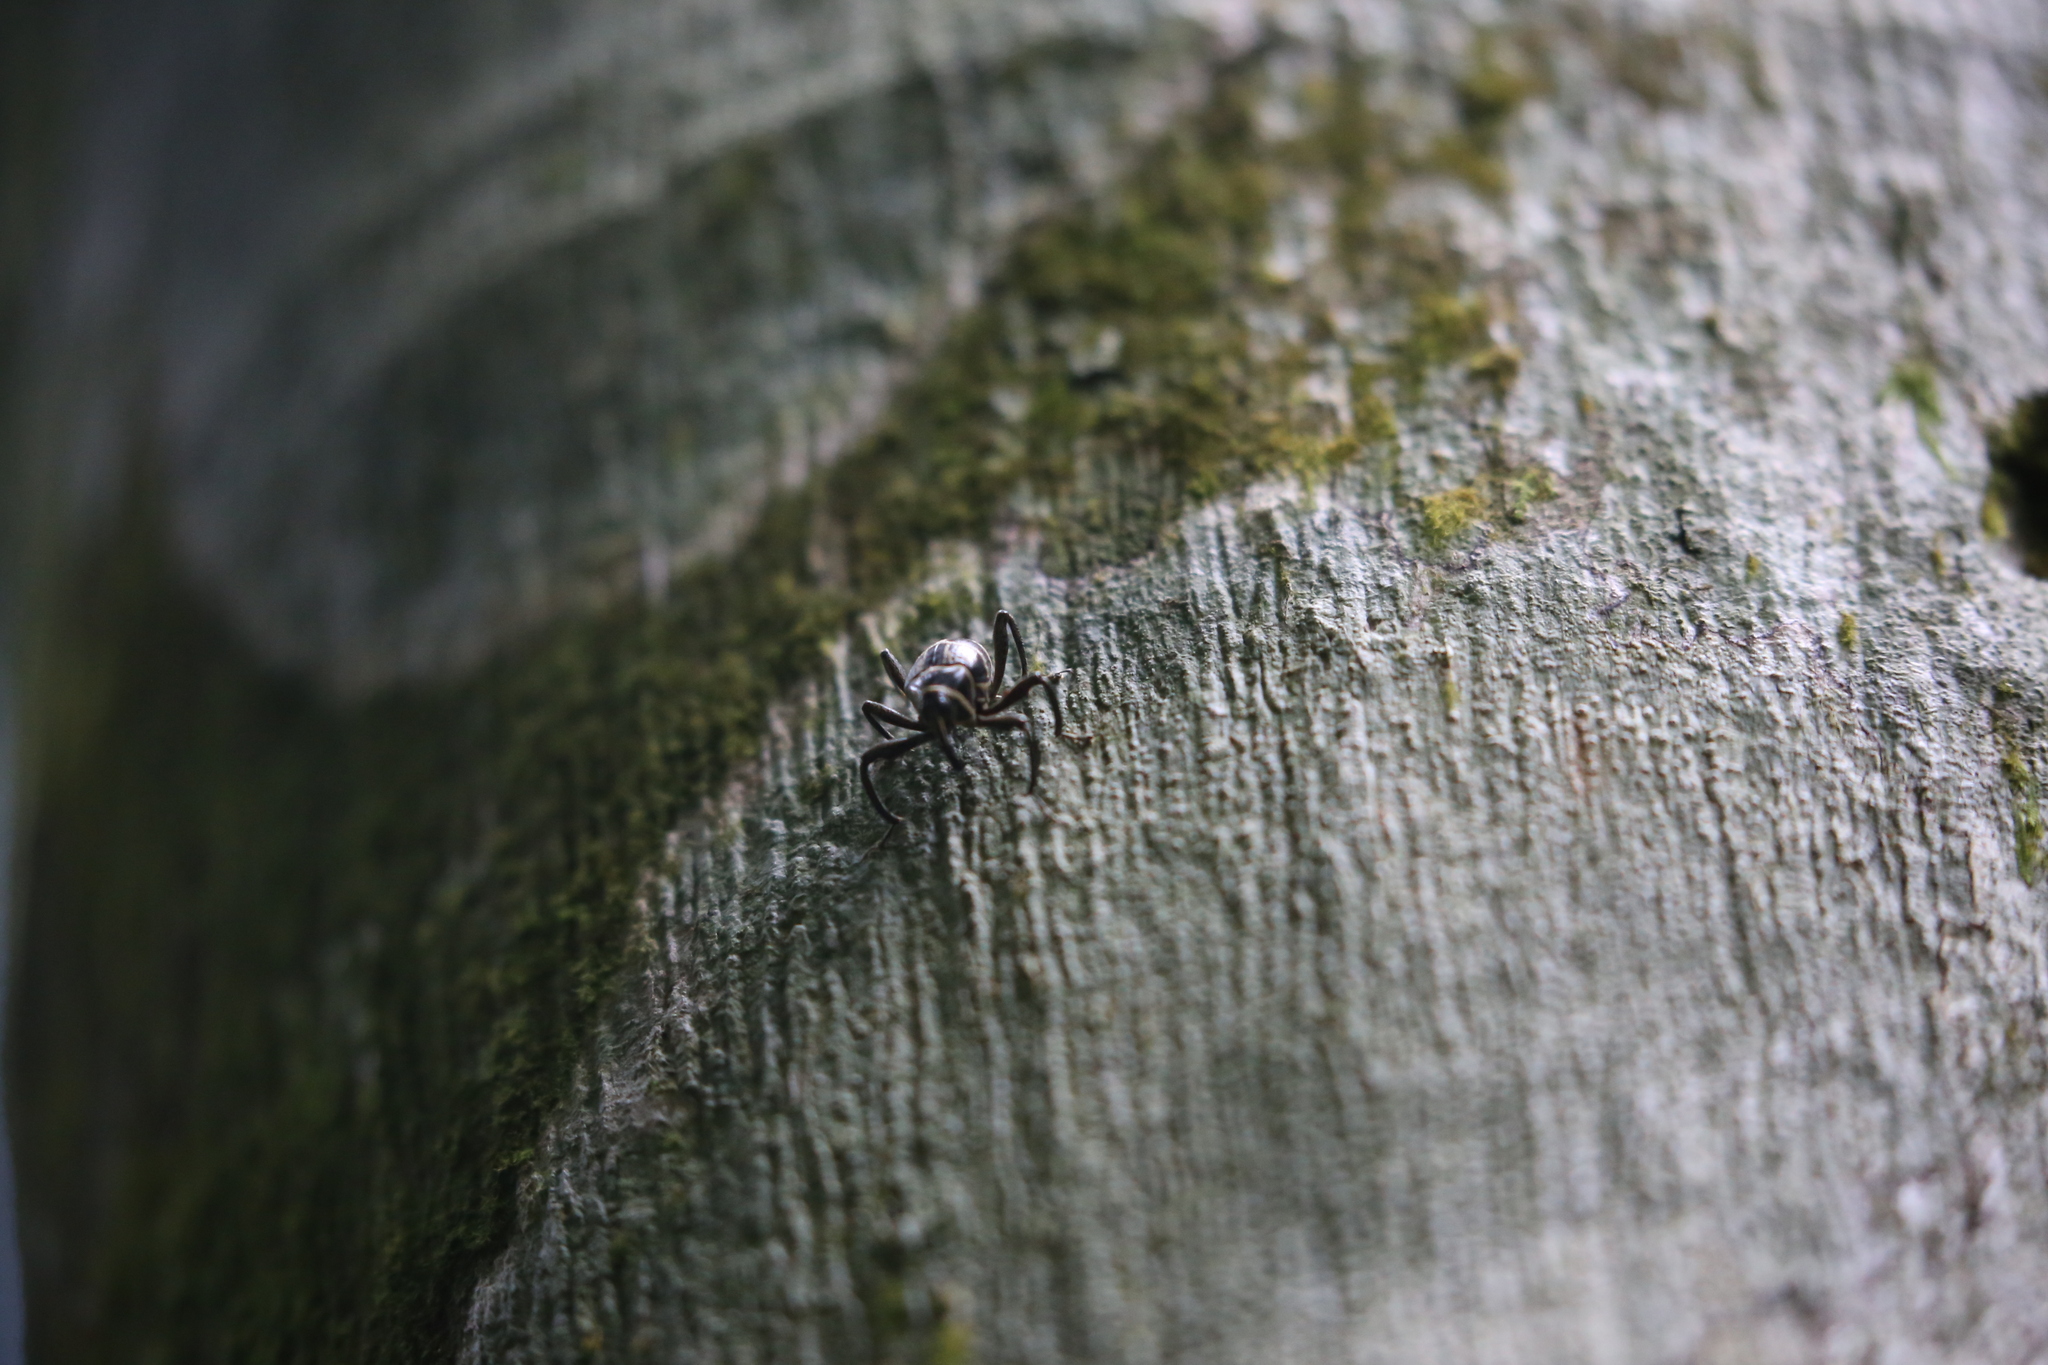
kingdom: Animalia
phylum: Arthropoda
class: Insecta
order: Coleoptera
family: Curculionidae
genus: Enteles
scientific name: Enteles vigorsii
